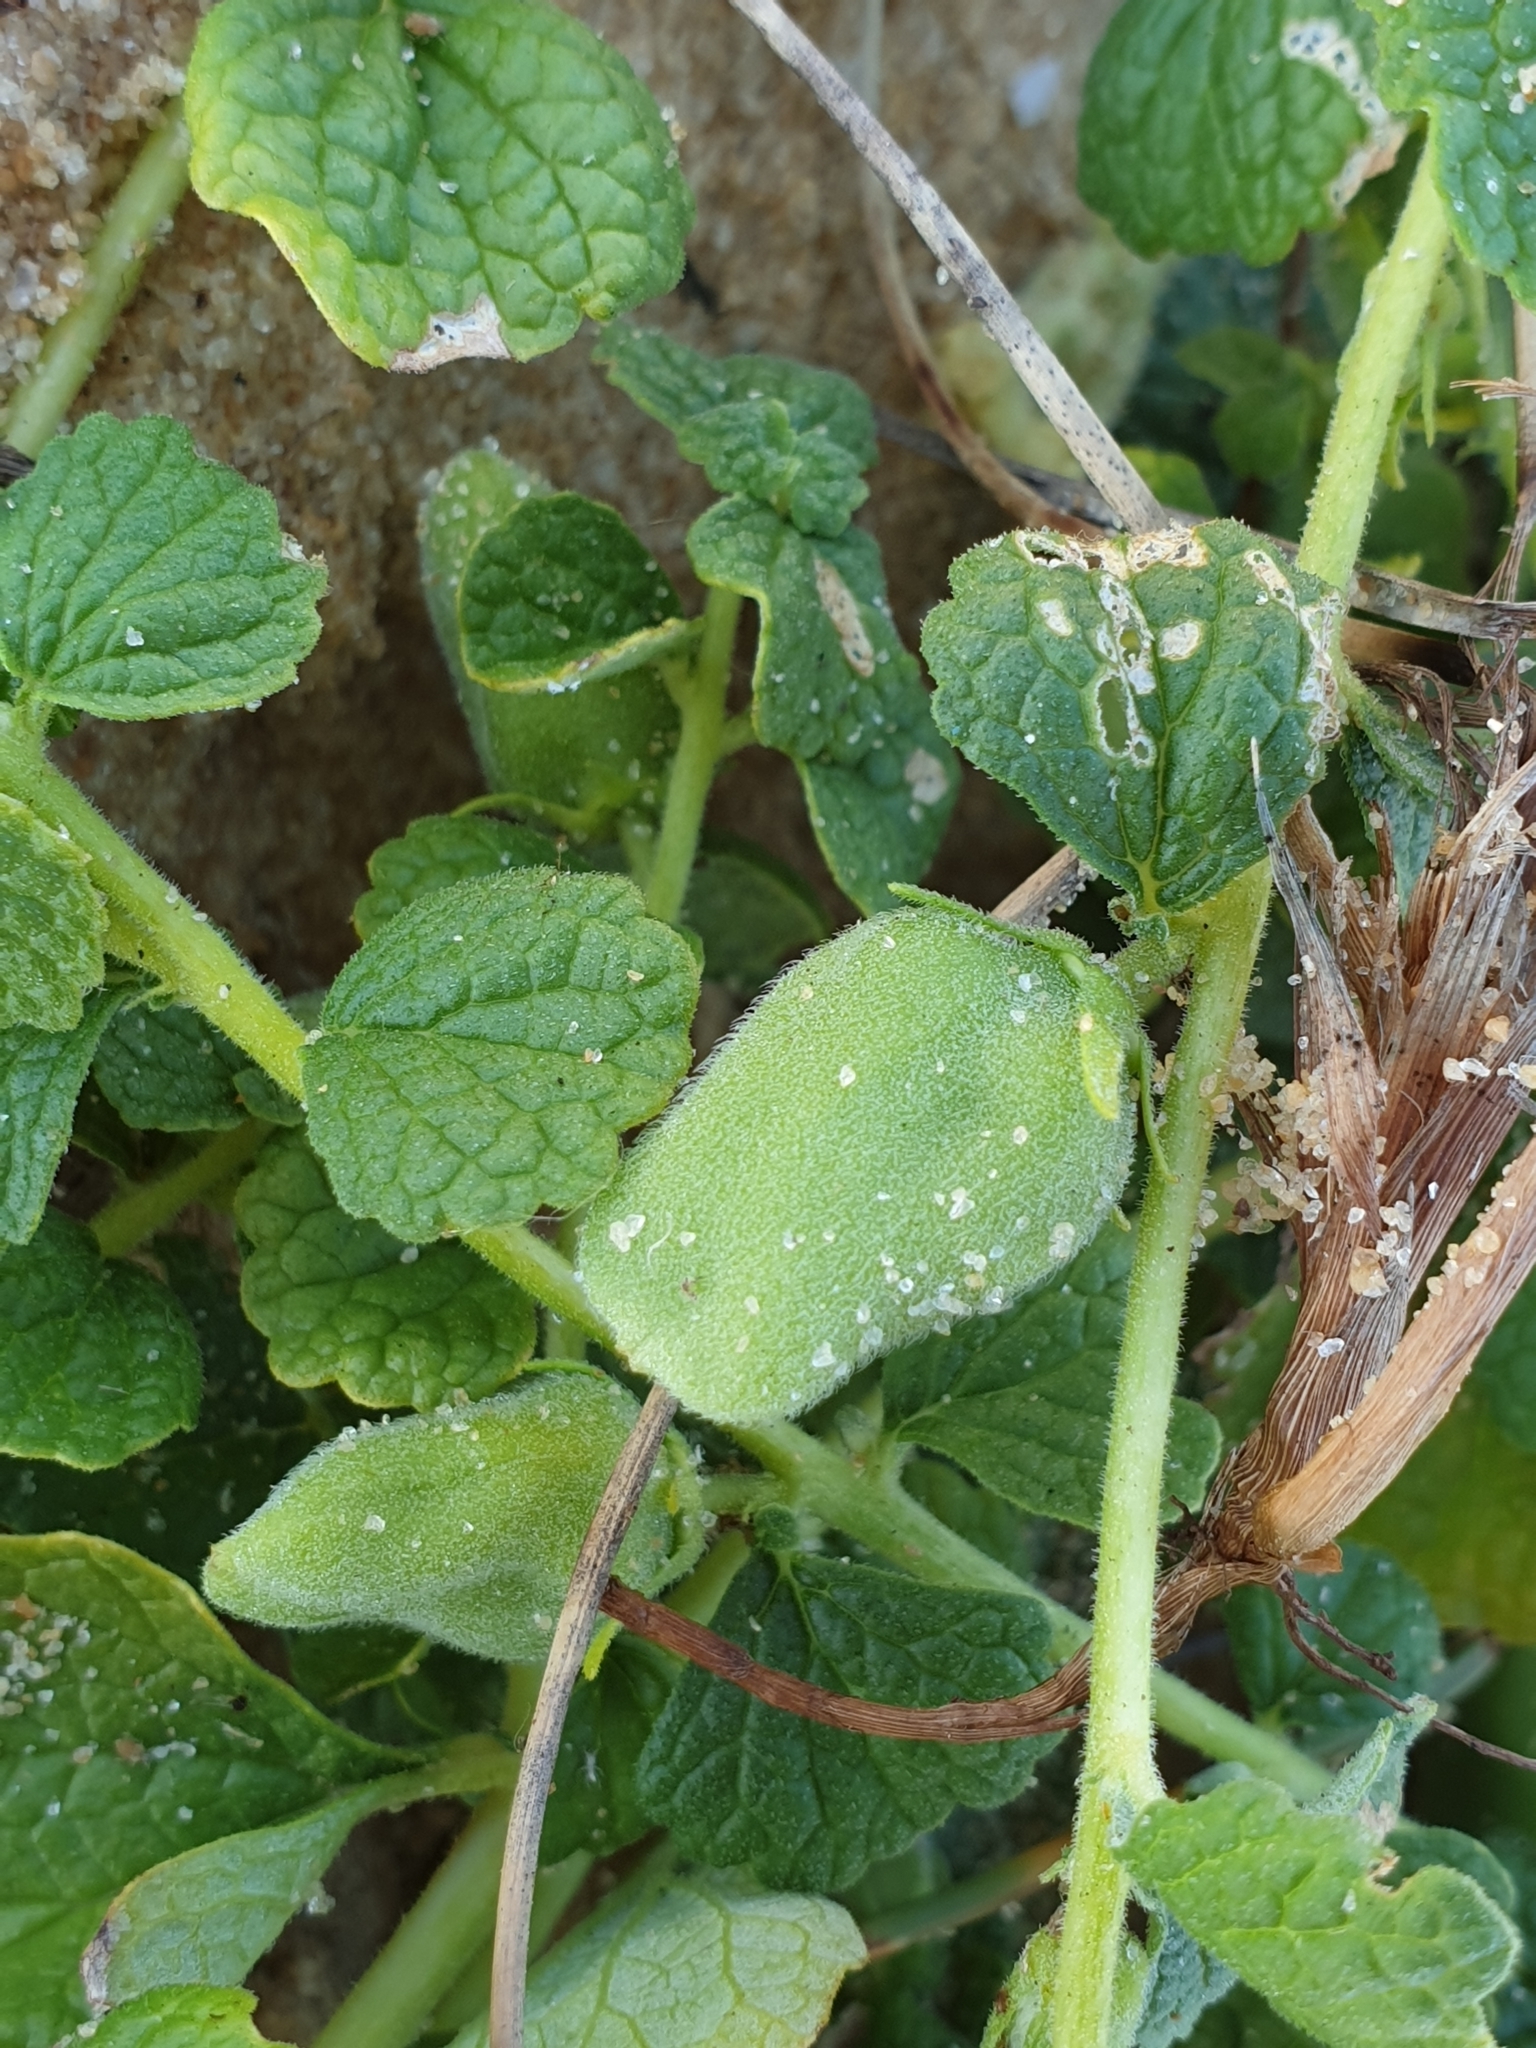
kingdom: Plantae
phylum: Tracheophyta
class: Magnoliopsida
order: Lamiales
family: Pedaliaceae
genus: Sesamum
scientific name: Sesamum prostratum
